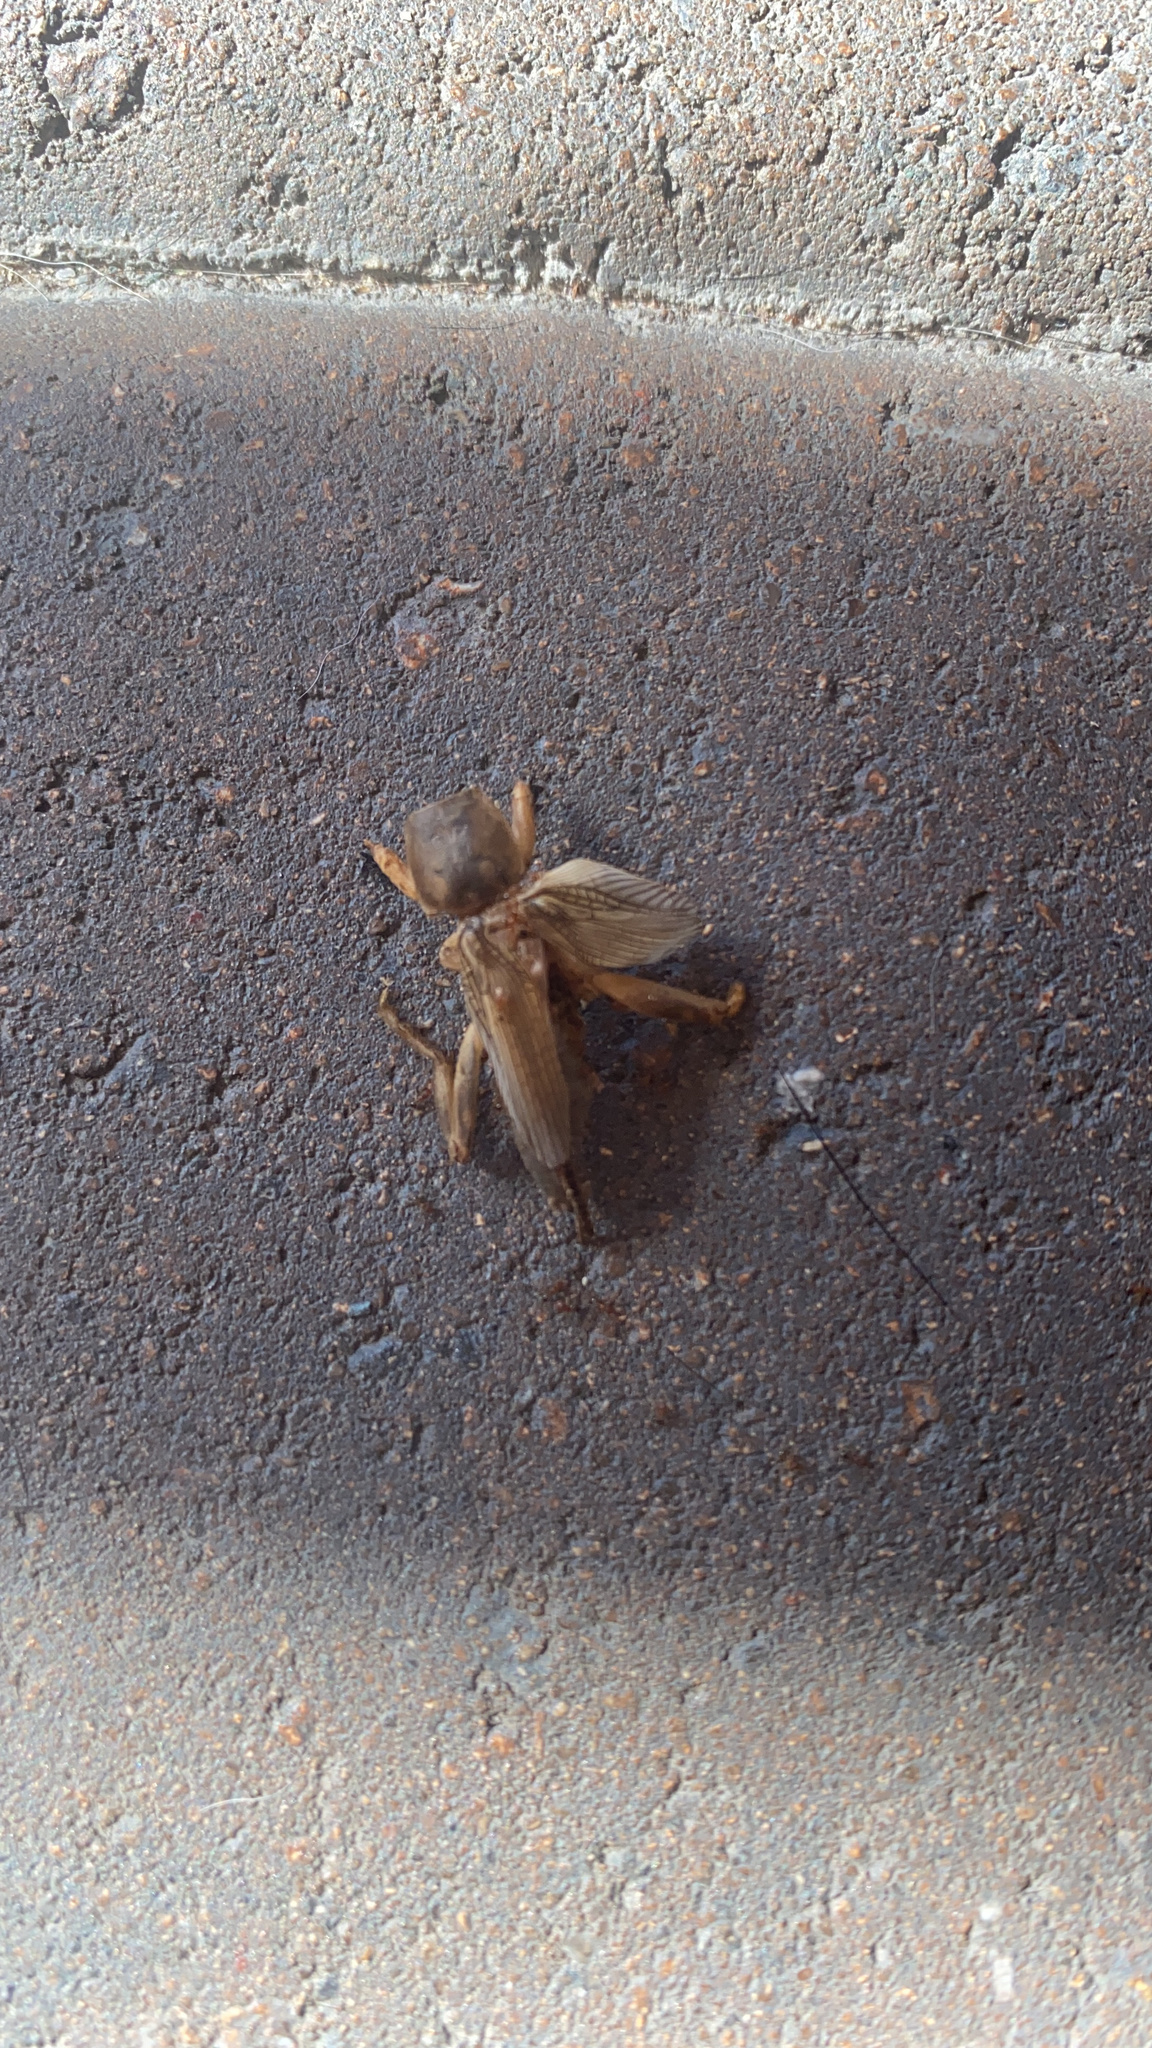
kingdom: Animalia
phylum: Arthropoda
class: Insecta
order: Orthoptera
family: Gryllotalpidae
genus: Neoscapteriscus
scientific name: Neoscapteriscus vicinus
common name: Tawny mole cricket
